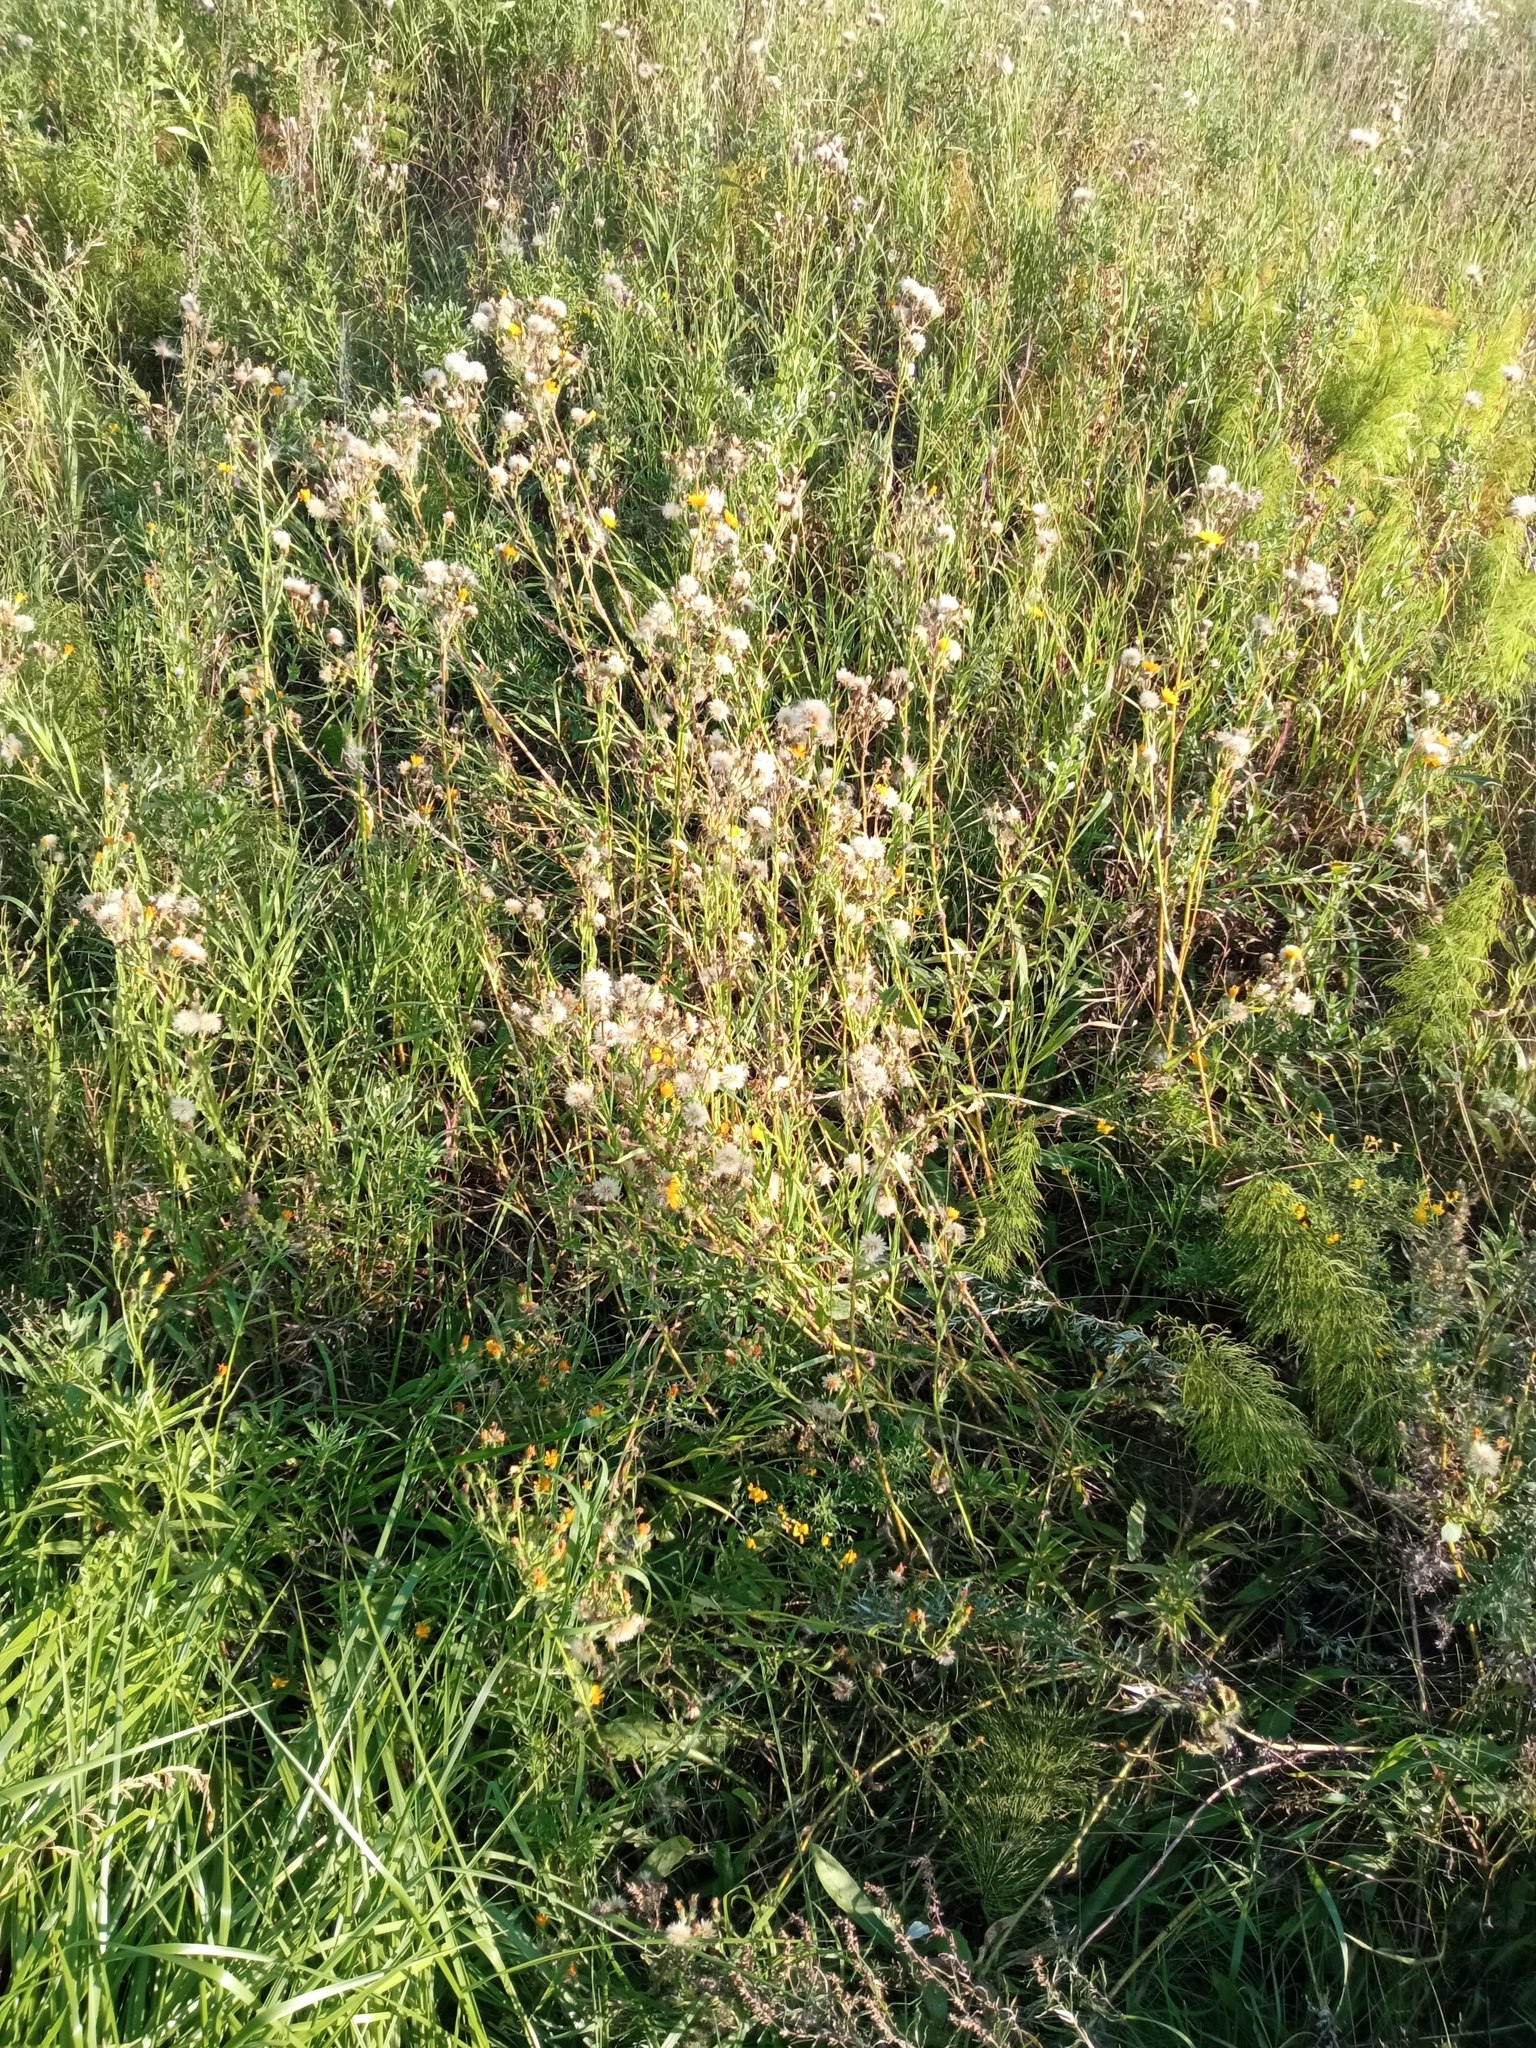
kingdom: Plantae
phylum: Tracheophyta
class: Magnoliopsida
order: Asterales
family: Asteraceae
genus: Picris
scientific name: Picris hieracioides
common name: Hawkweed oxtongue
